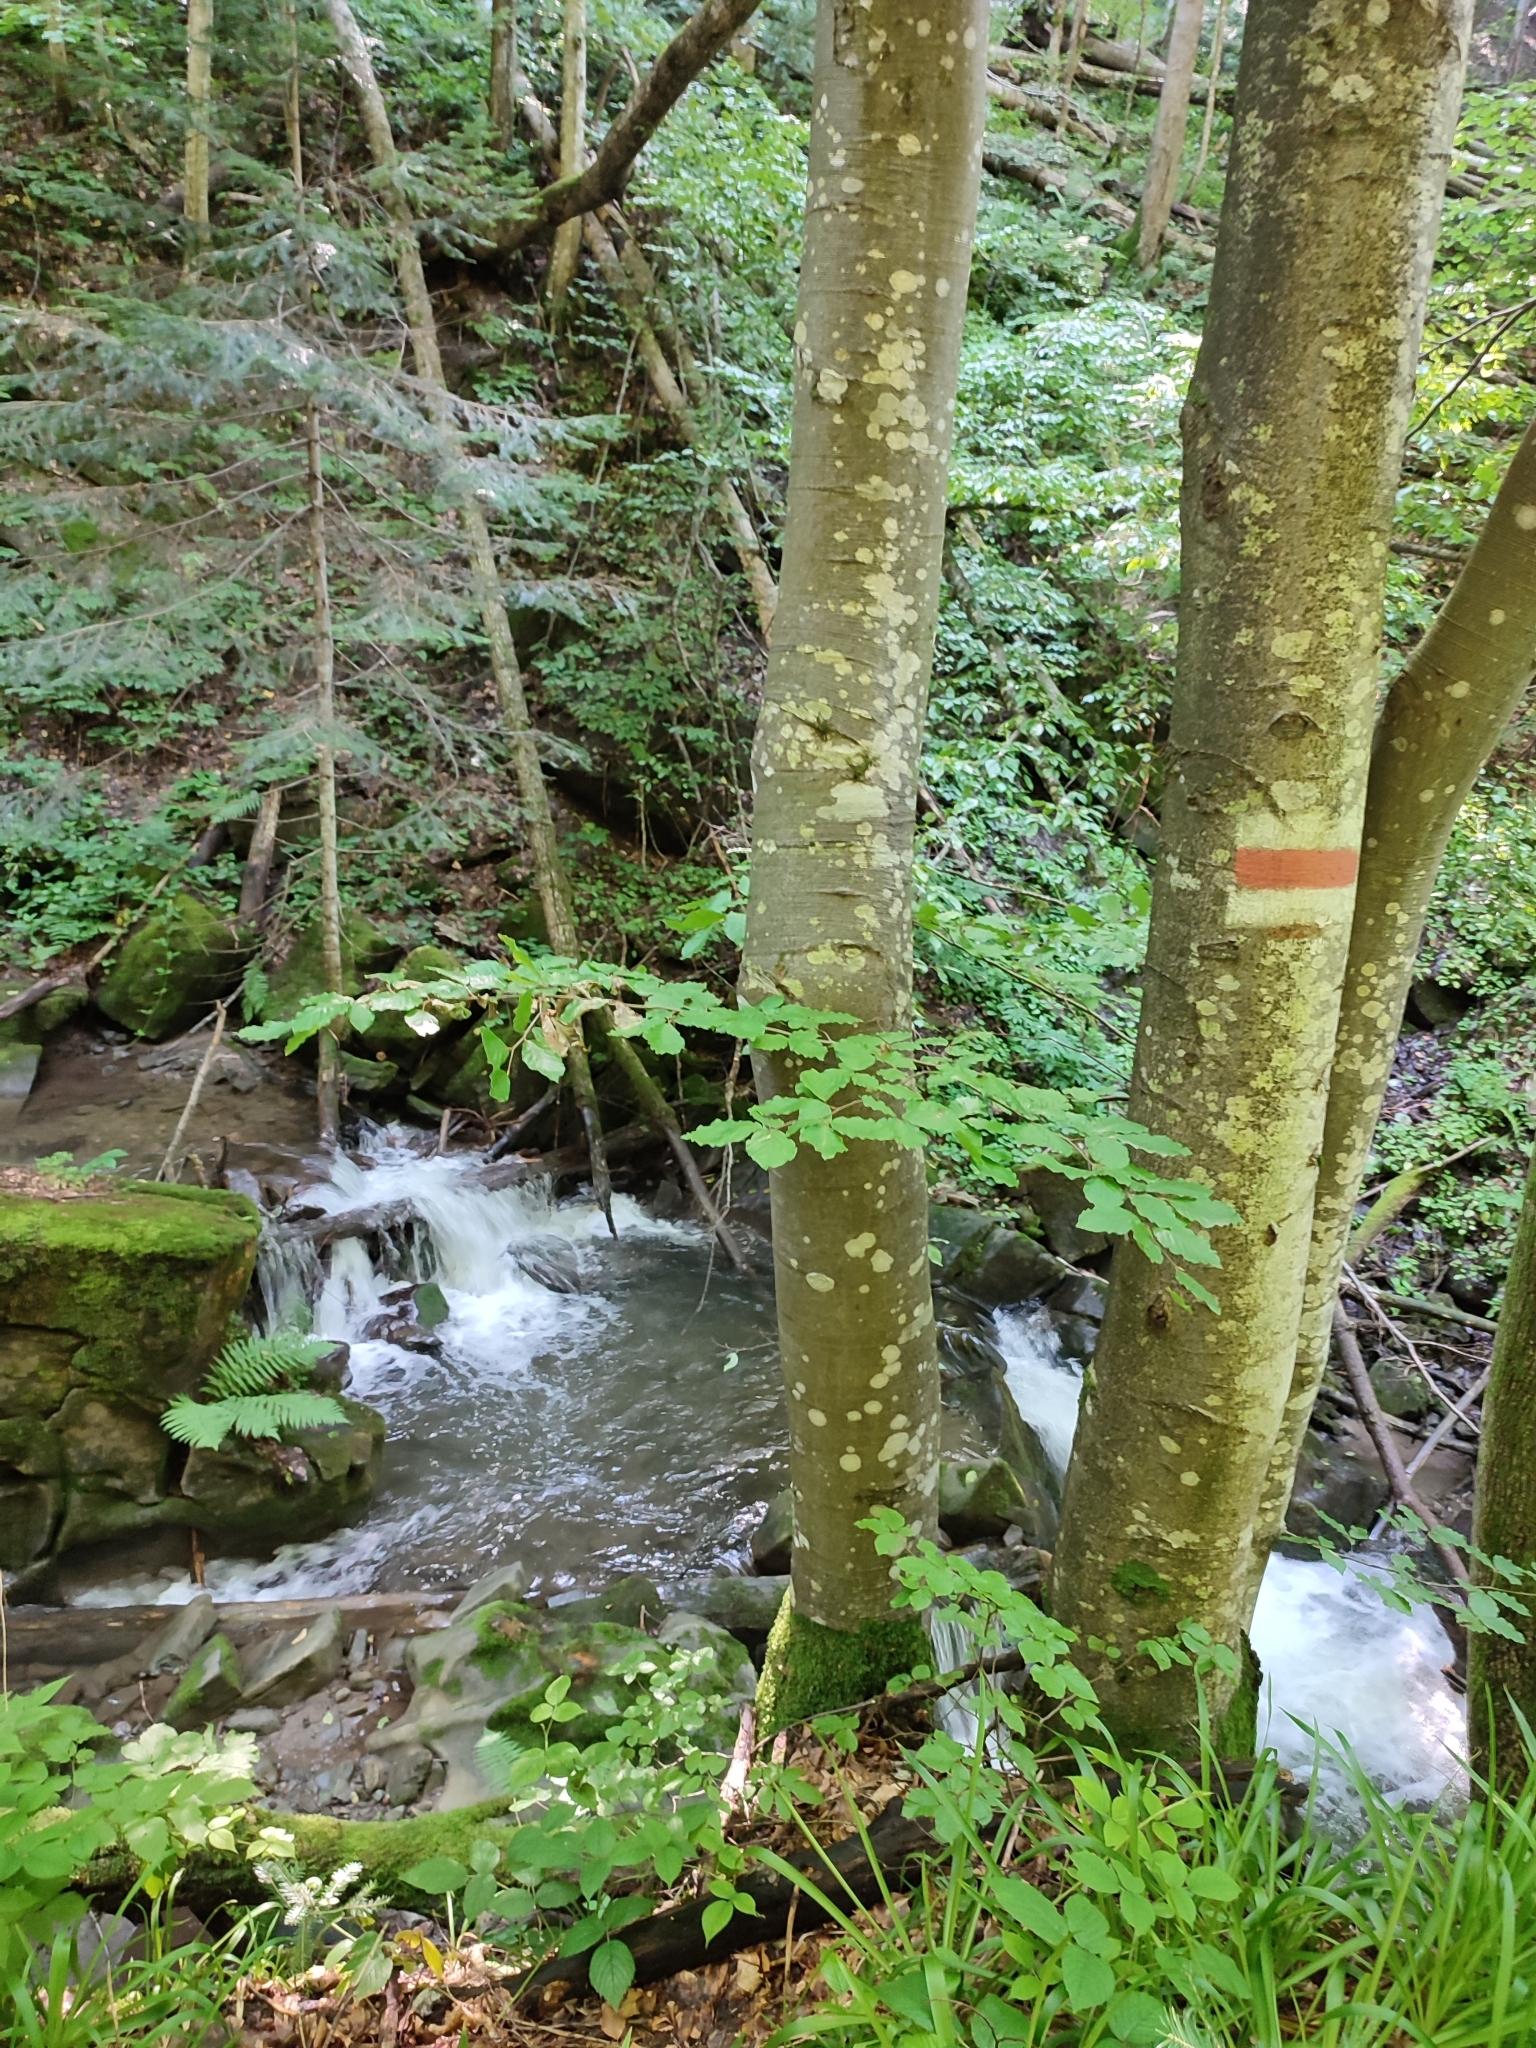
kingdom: Plantae
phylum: Tracheophyta
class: Magnoliopsida
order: Fagales
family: Fagaceae
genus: Fagus
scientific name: Fagus sylvatica
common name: Beech
